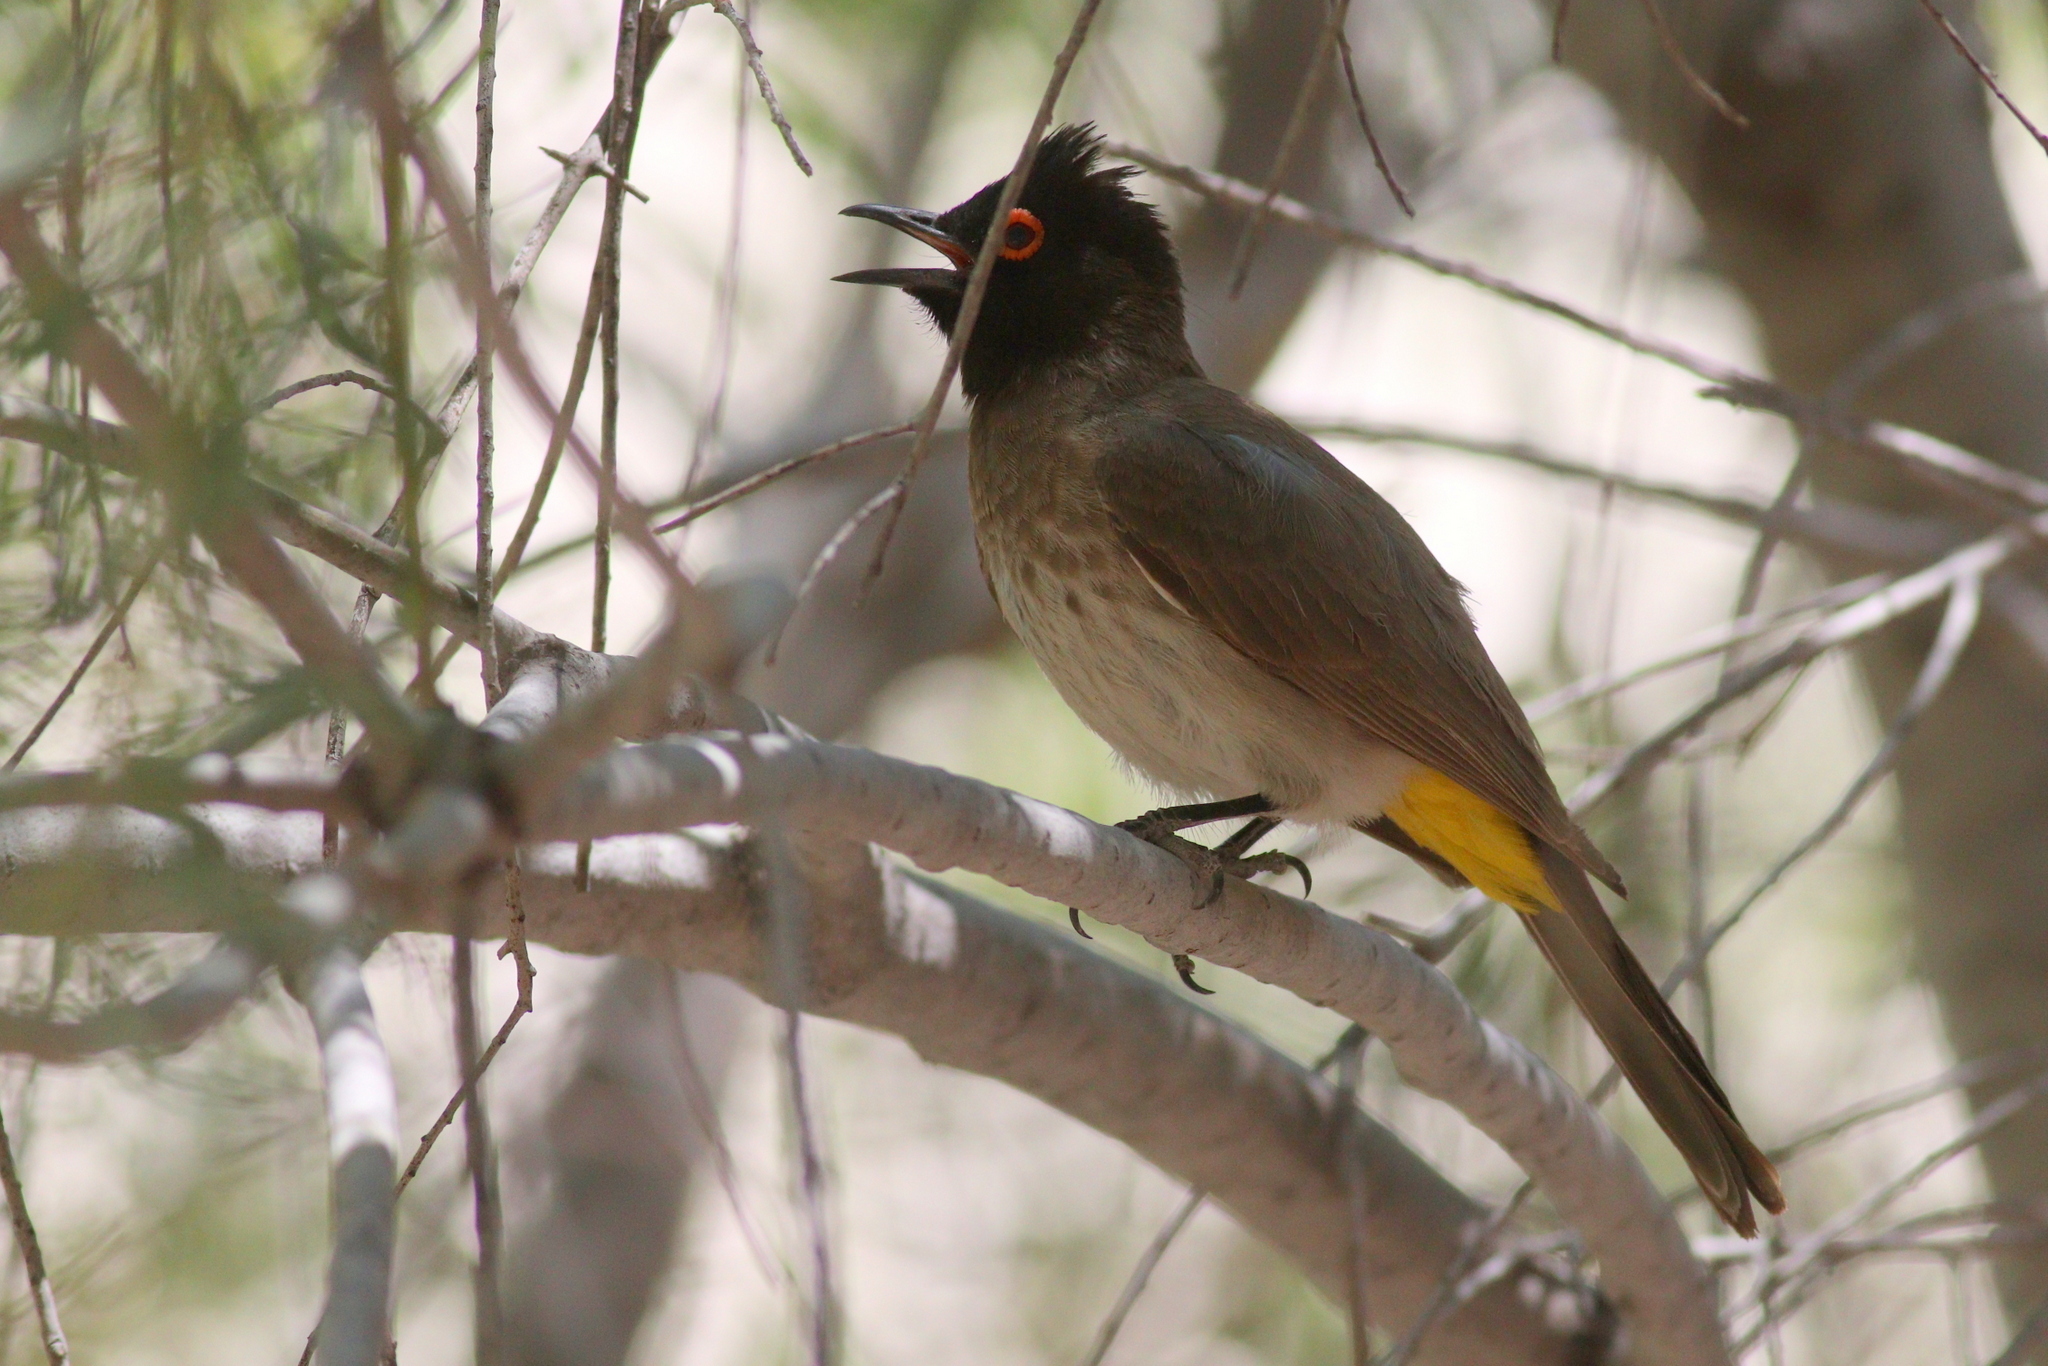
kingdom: Animalia
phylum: Chordata
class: Aves
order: Passeriformes
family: Pycnonotidae
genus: Pycnonotus
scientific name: Pycnonotus nigricans
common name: African red-eyed bulbul
